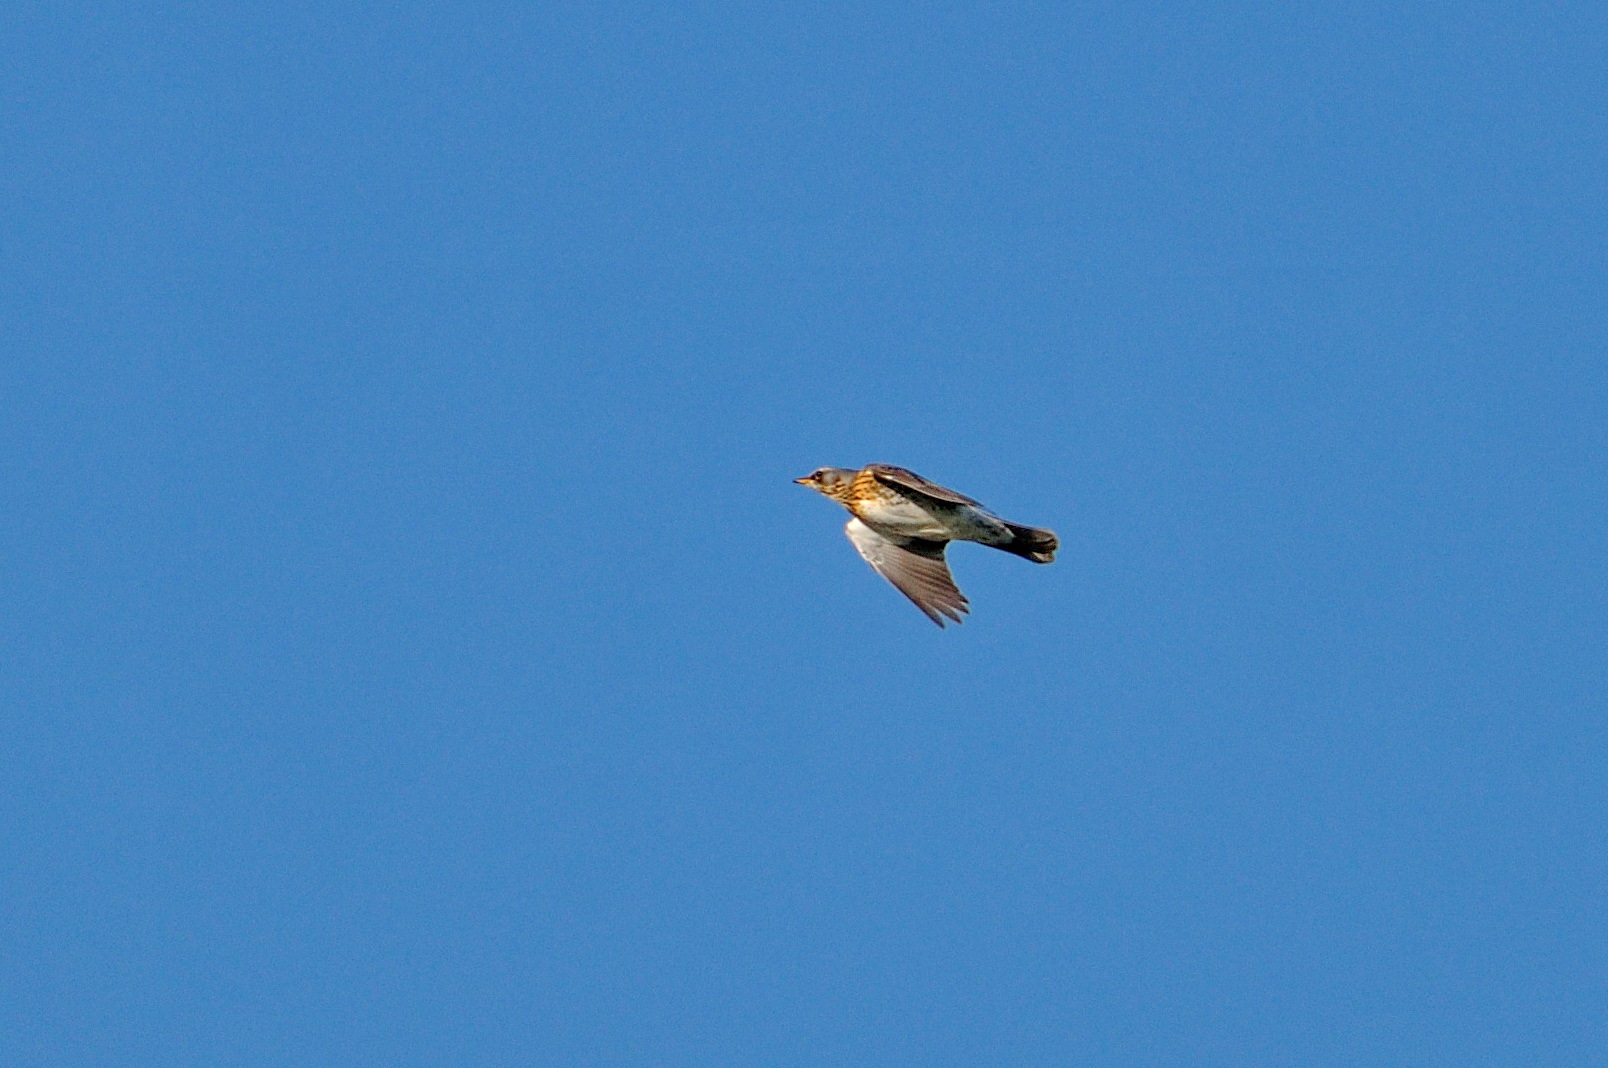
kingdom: Animalia
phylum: Chordata
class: Aves
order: Passeriformes
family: Turdidae
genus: Turdus
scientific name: Turdus pilaris
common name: Fieldfare
